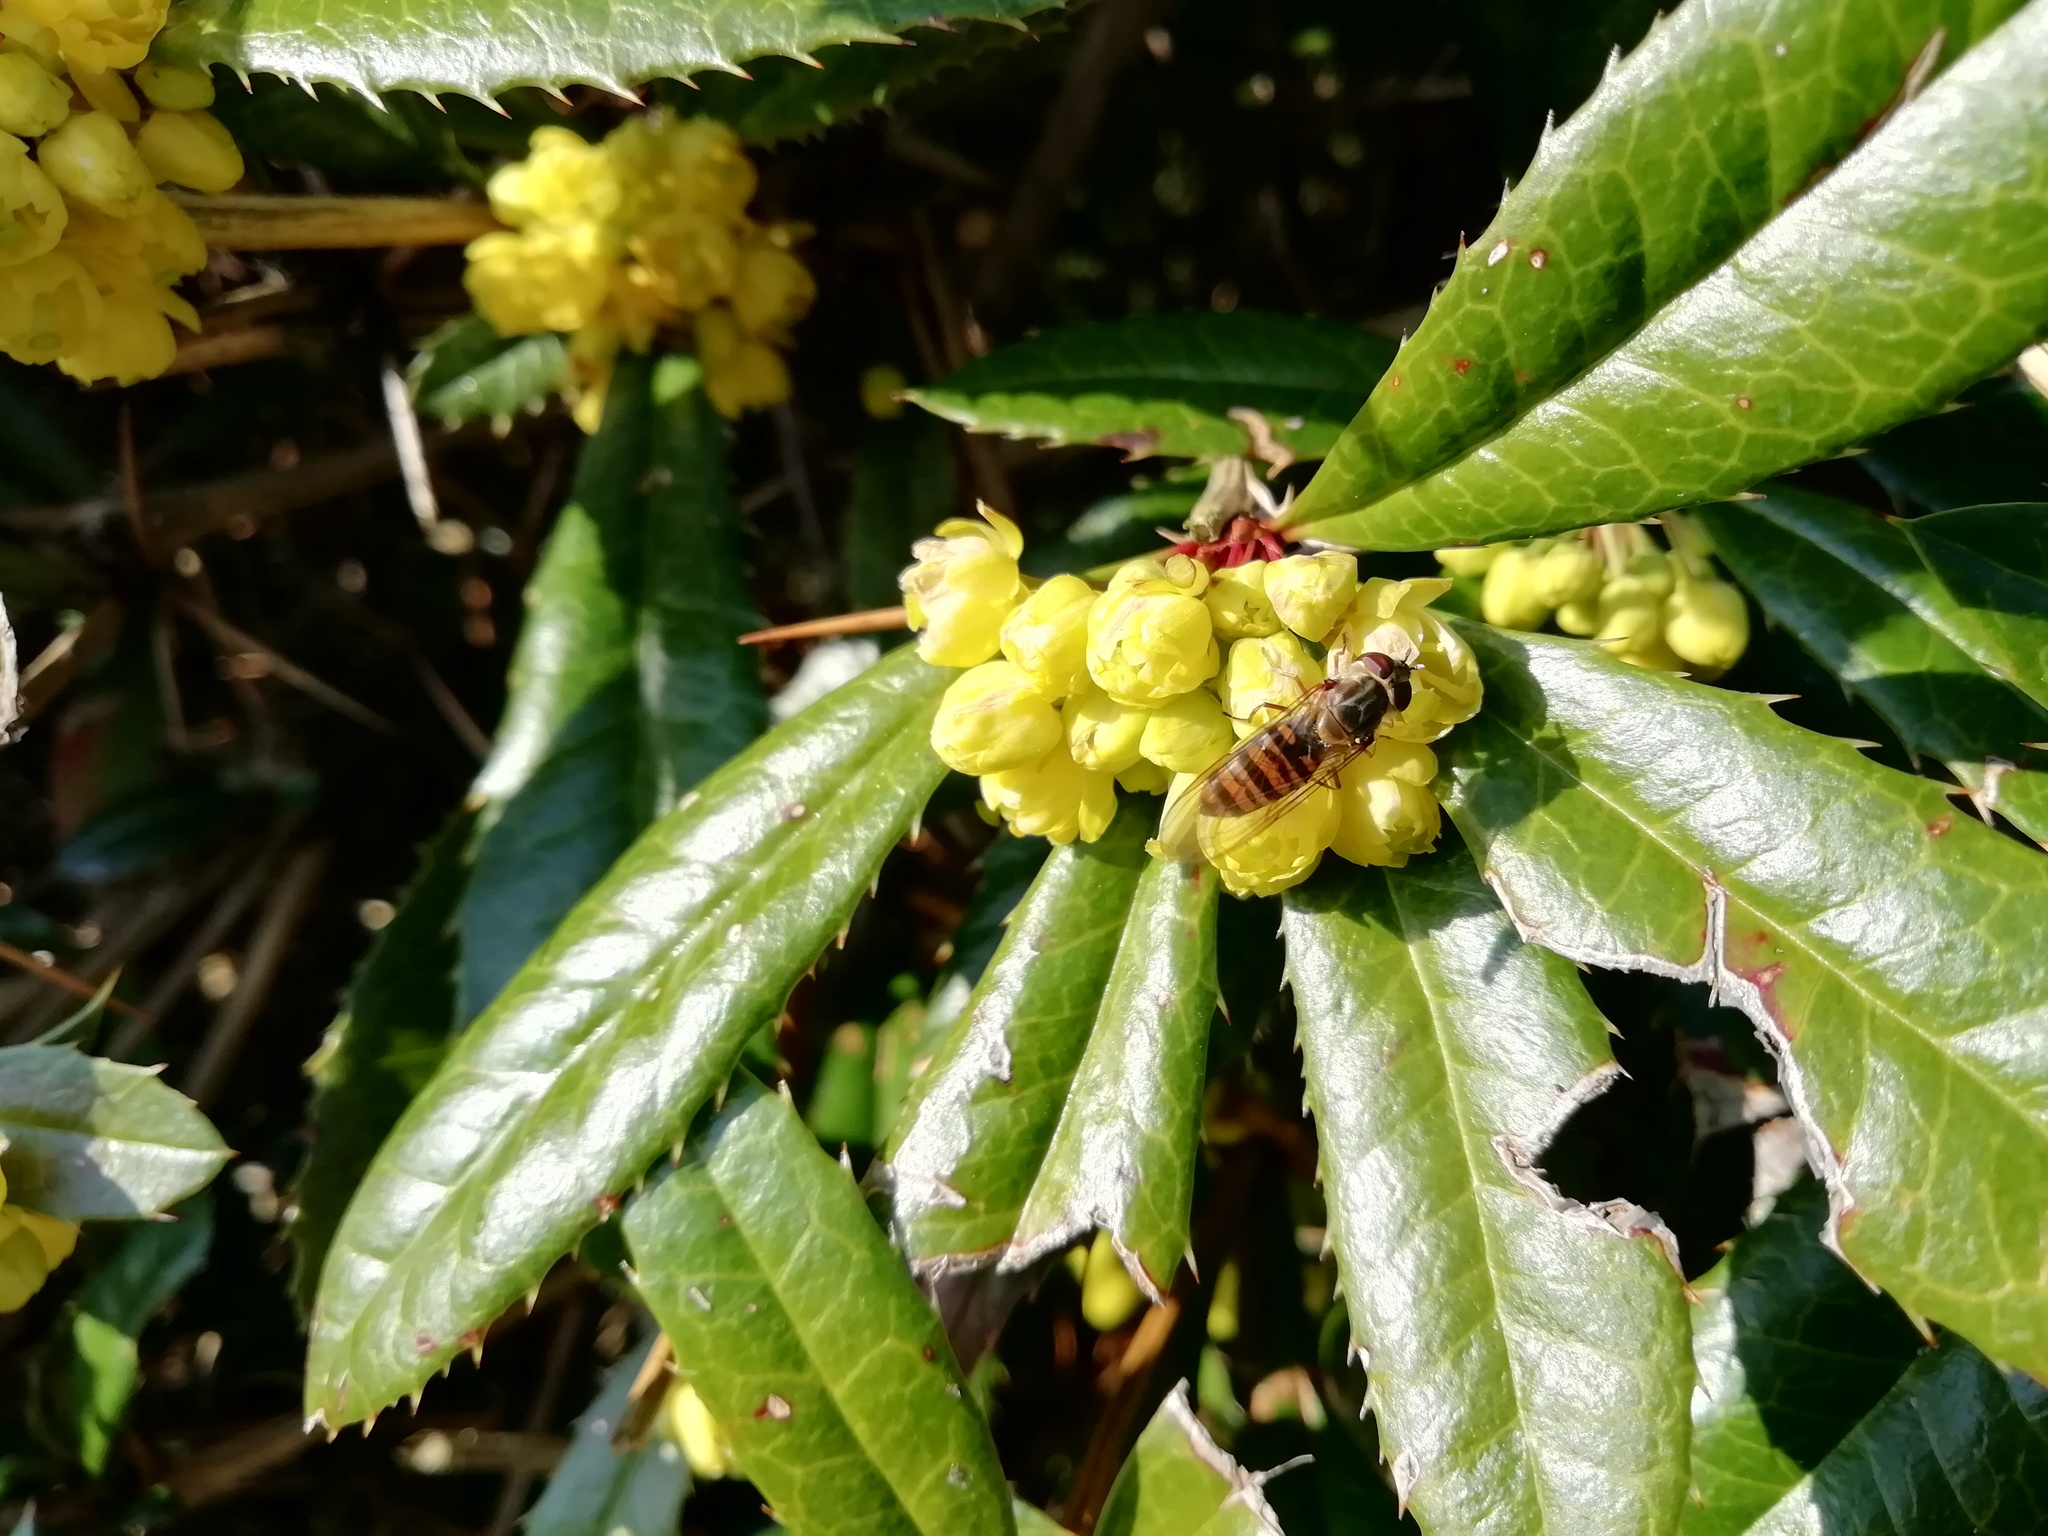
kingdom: Animalia
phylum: Arthropoda
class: Insecta
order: Diptera
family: Syrphidae
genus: Episyrphus
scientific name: Episyrphus balteatus
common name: Marmalade hoverfly
